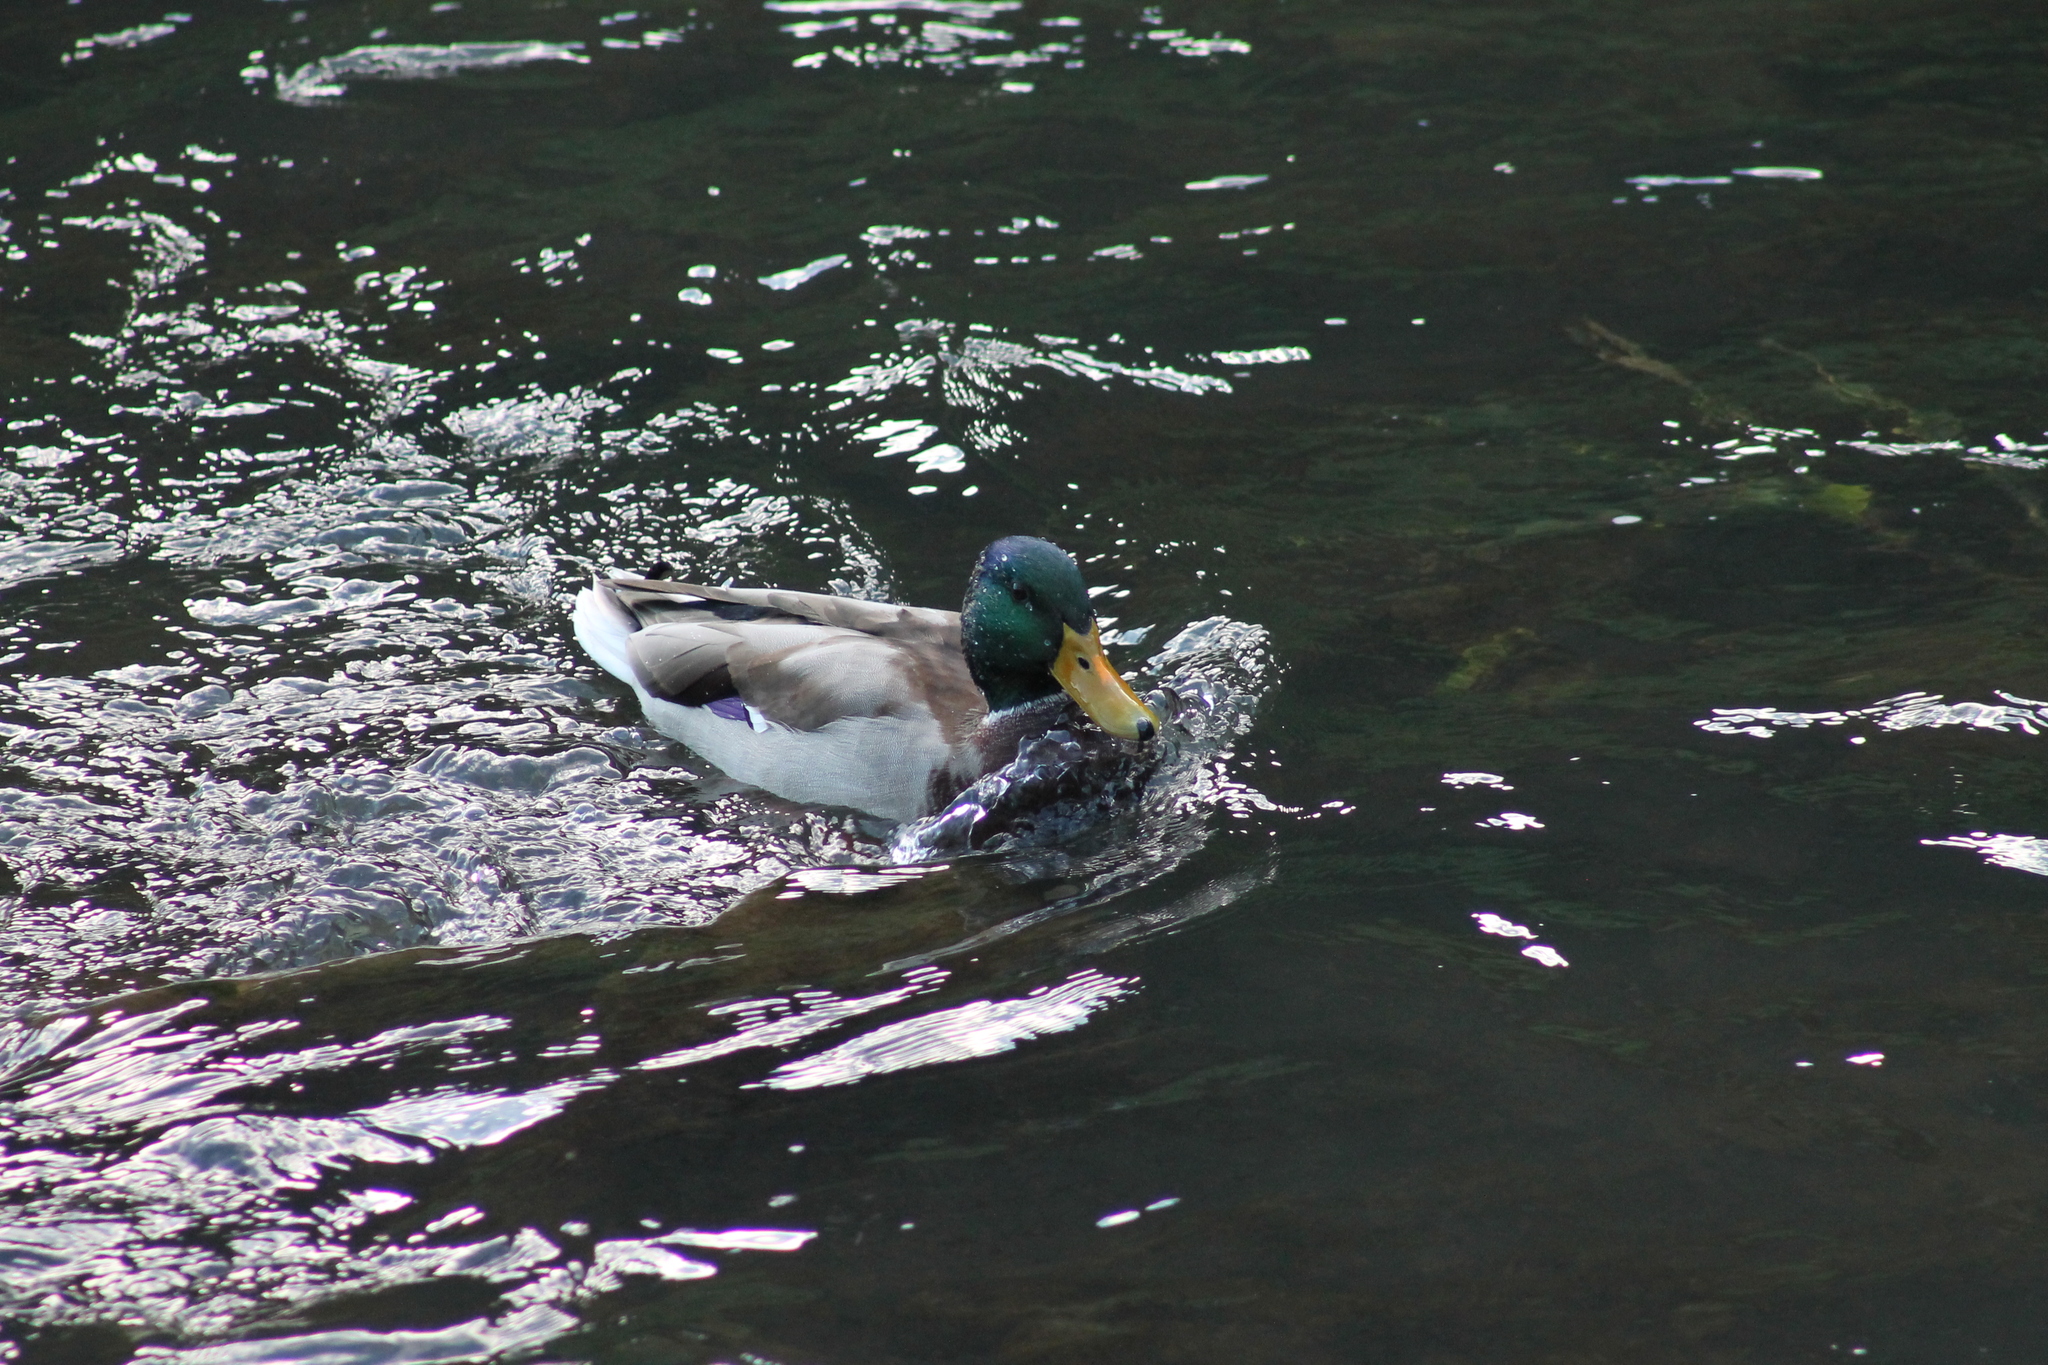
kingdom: Animalia
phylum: Chordata
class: Aves
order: Anseriformes
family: Anatidae
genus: Anas
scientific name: Anas platyrhynchos
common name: Mallard
